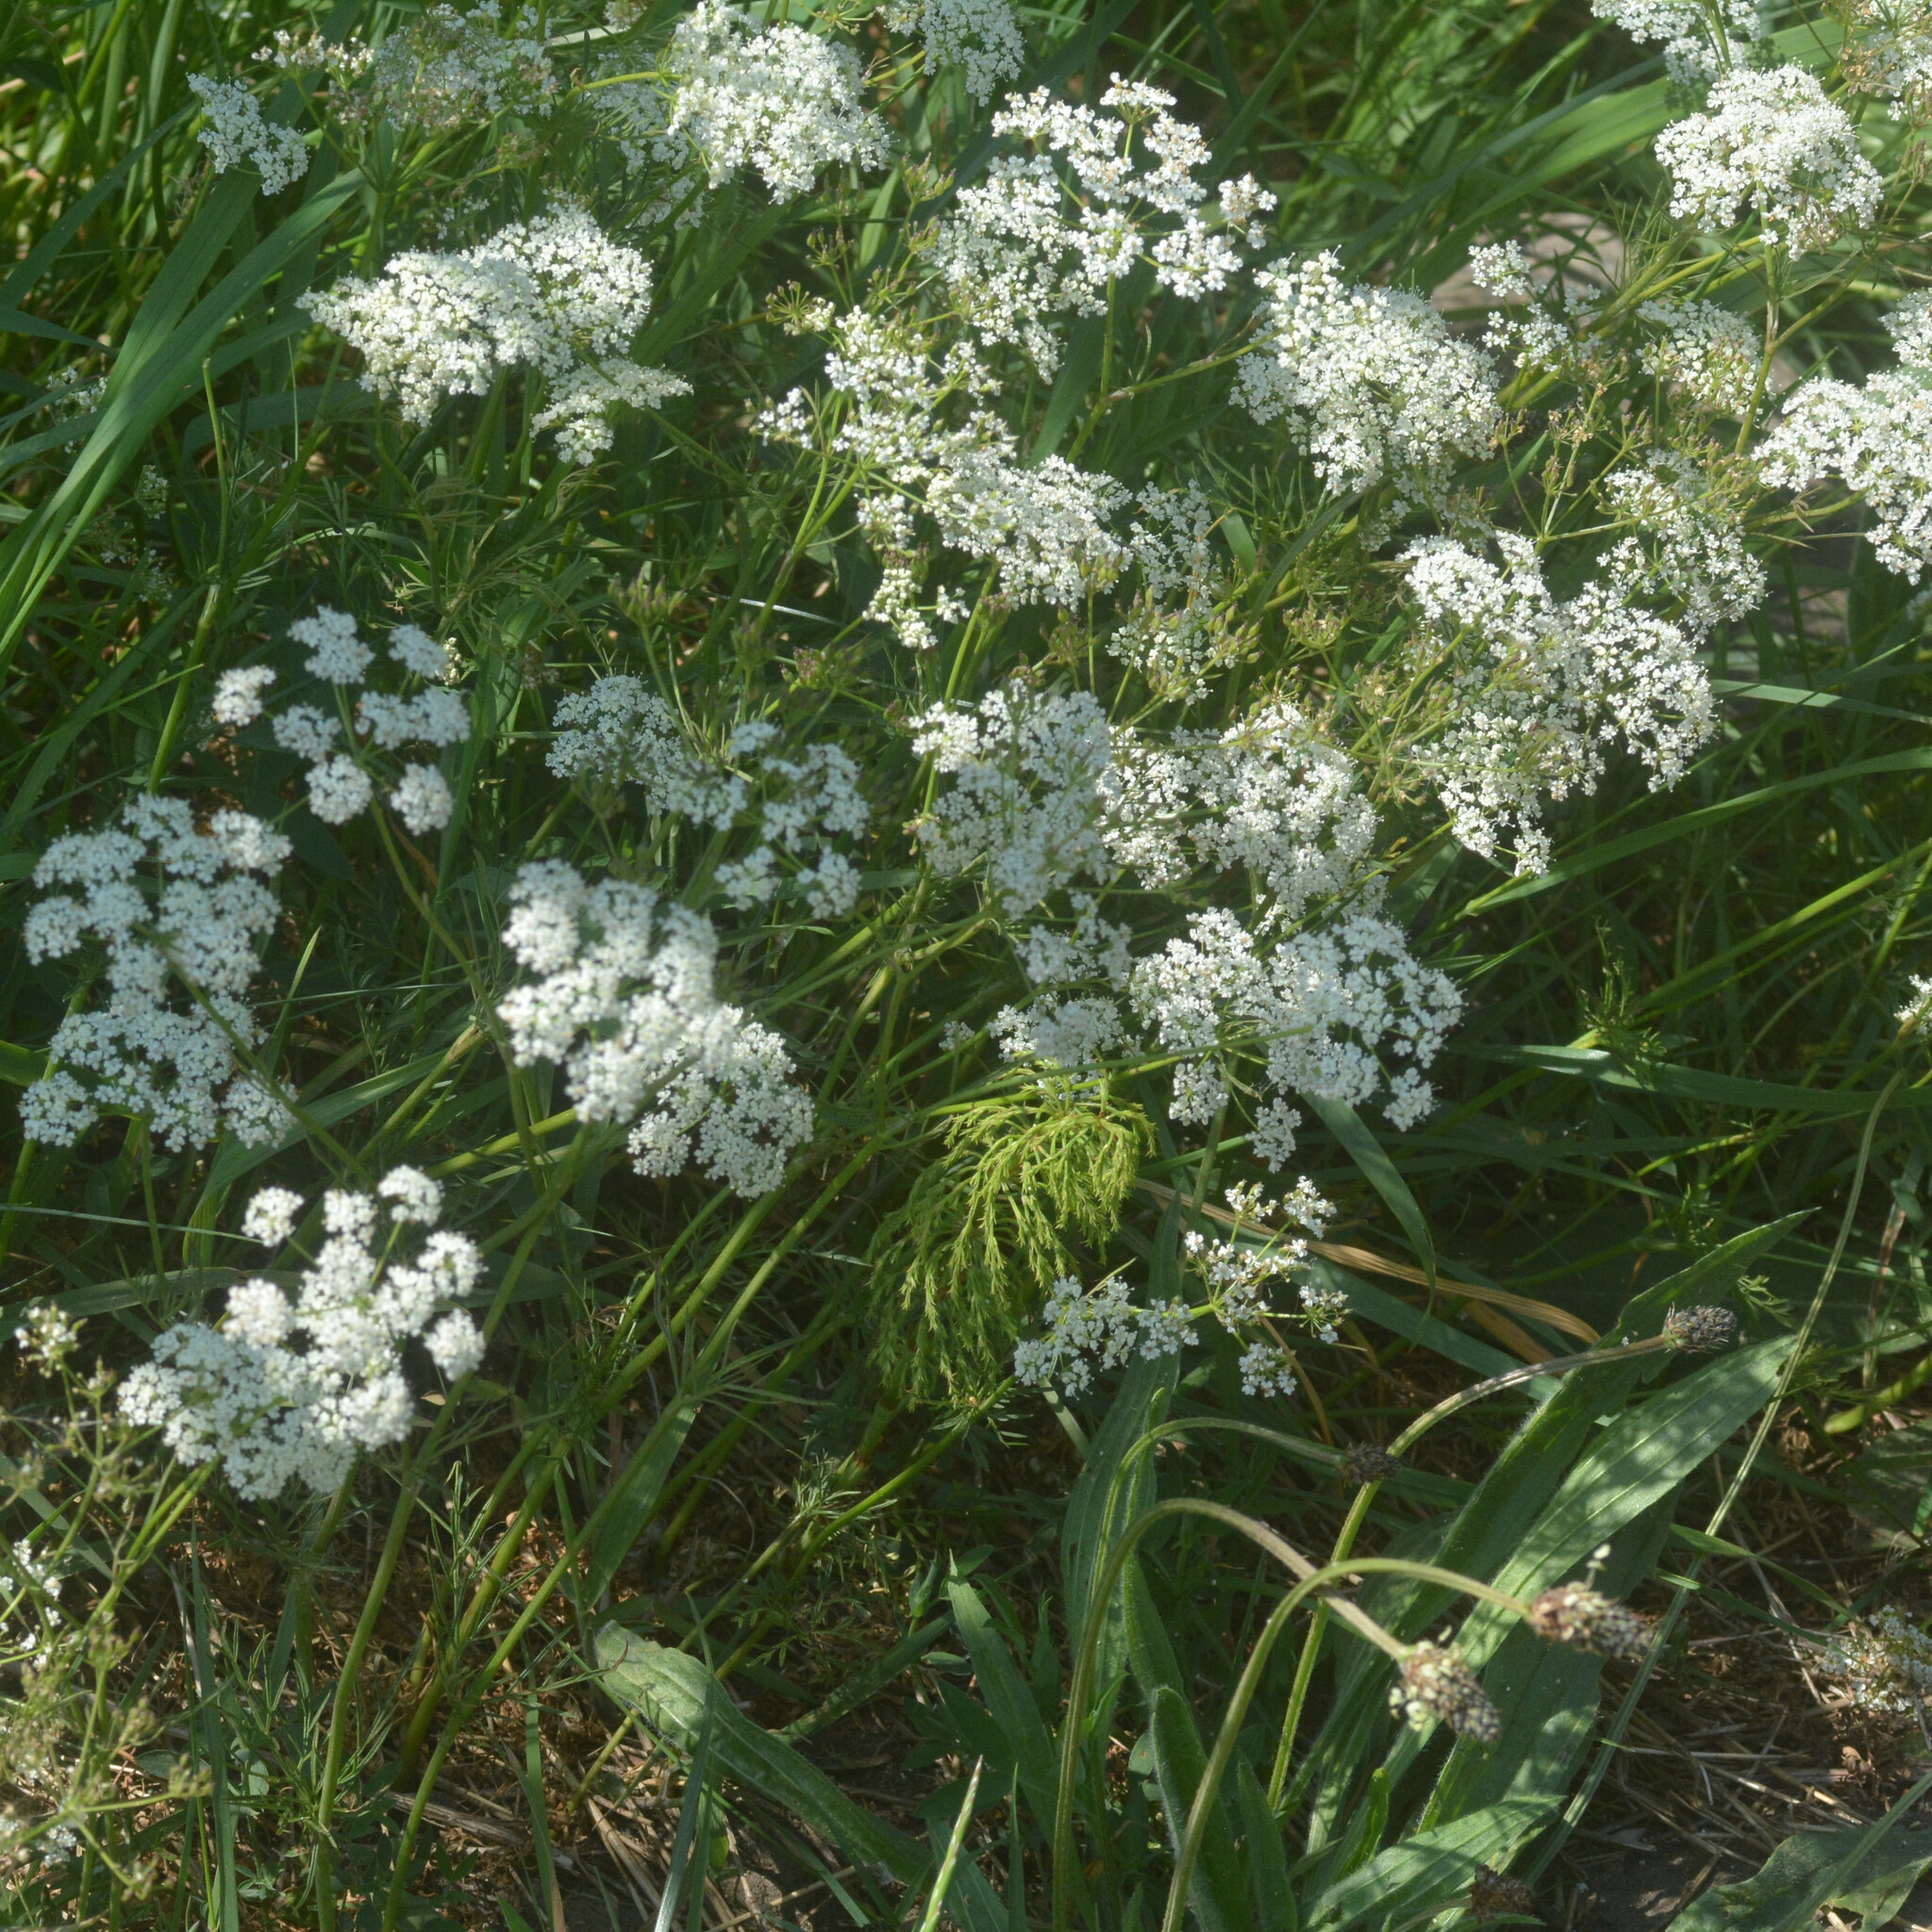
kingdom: Plantae
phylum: Tracheophyta
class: Magnoliopsida
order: Apiales
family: Apiaceae
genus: Conopodium
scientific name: Conopodium majus
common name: Pignut
